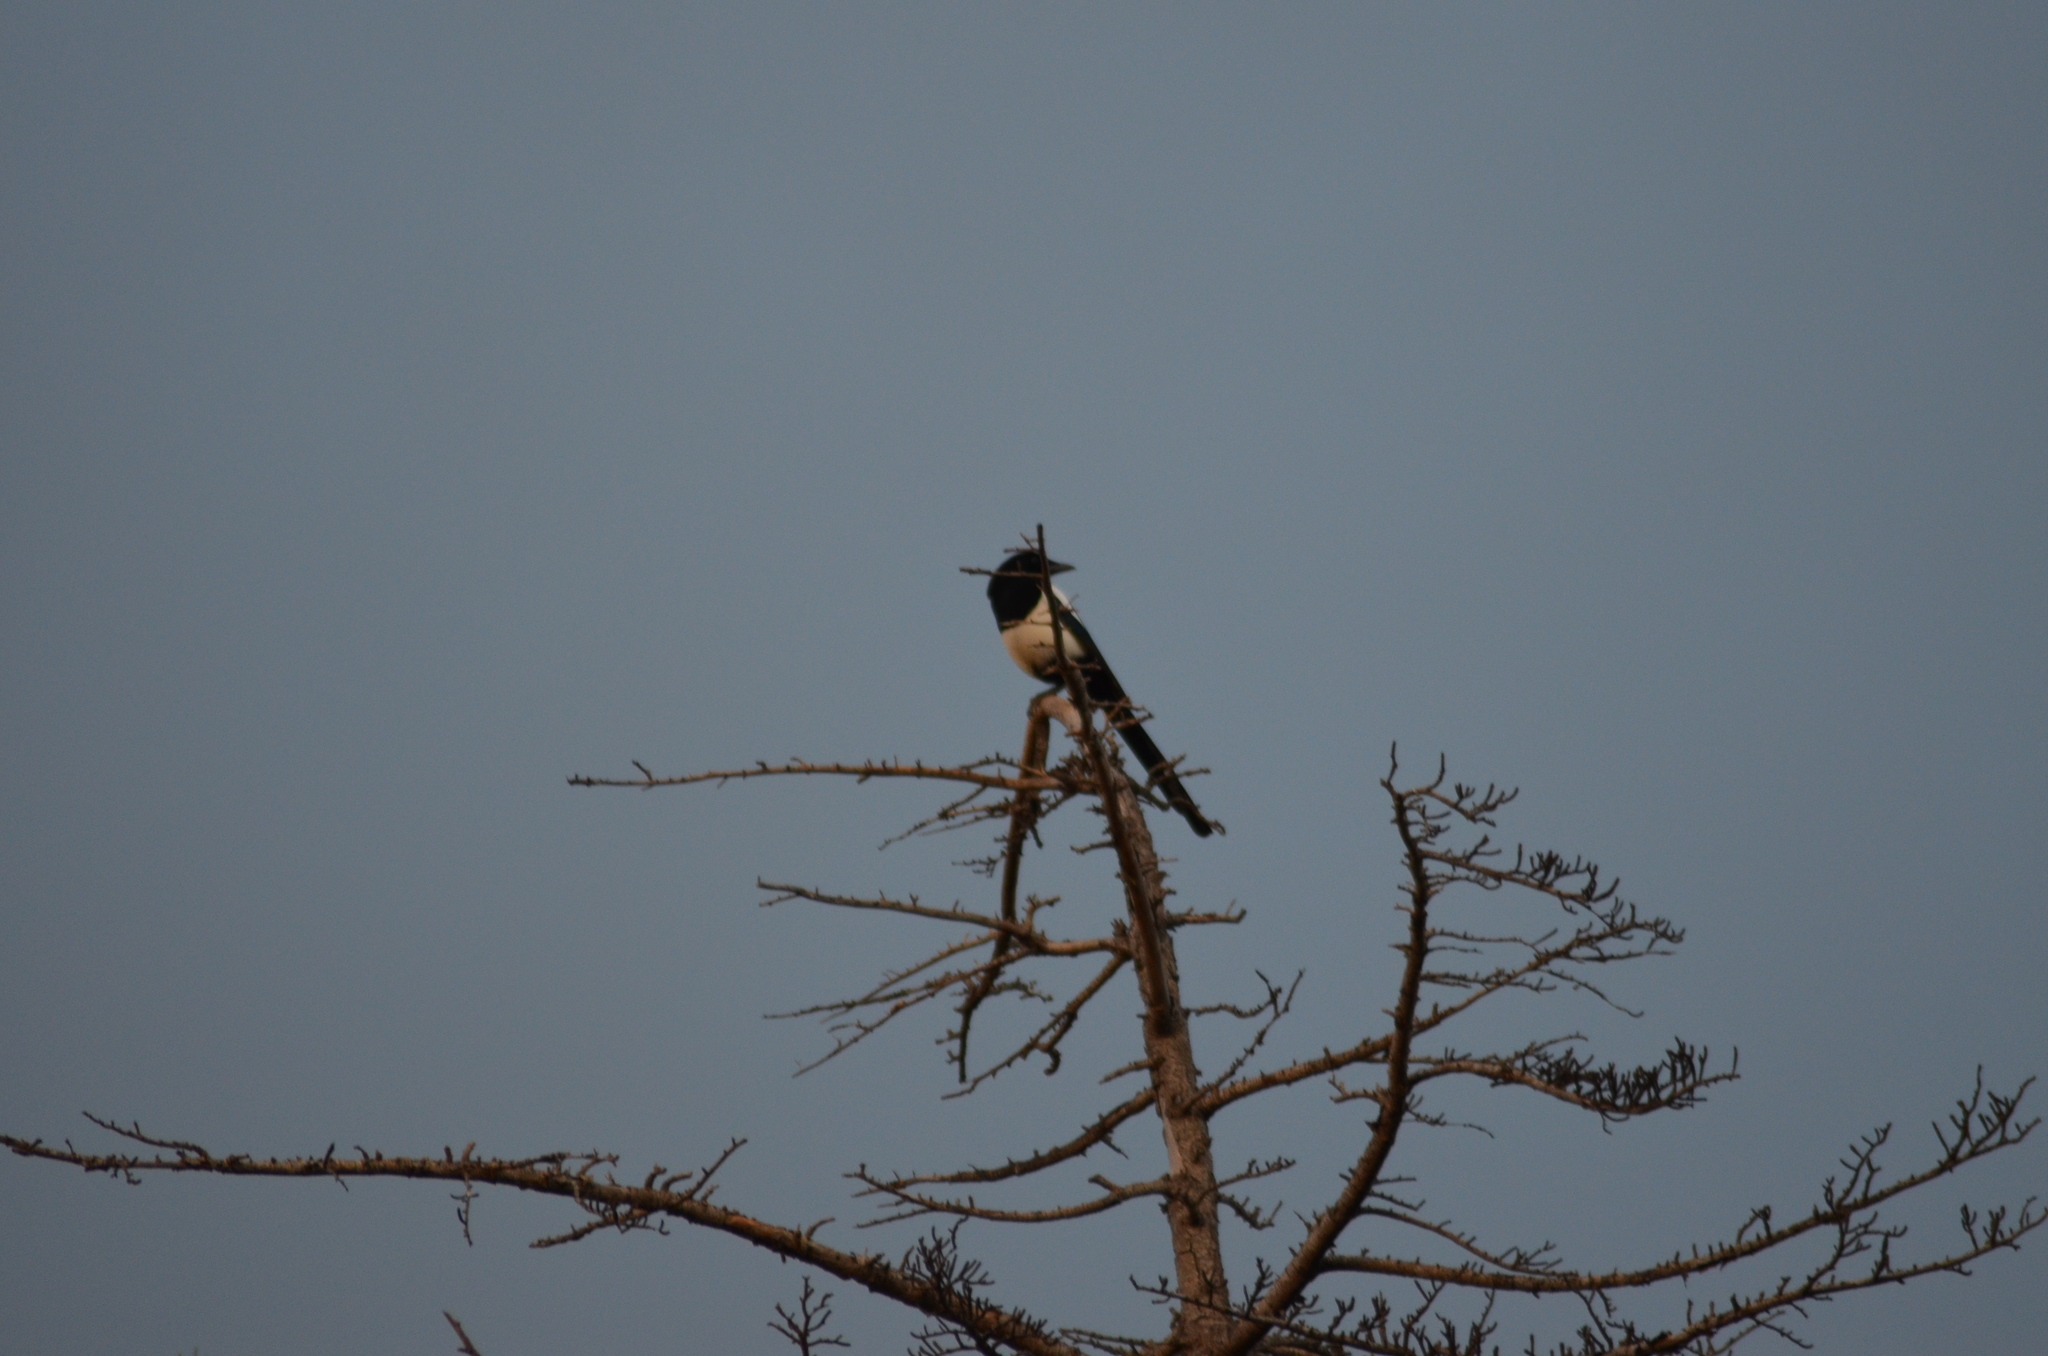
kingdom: Animalia
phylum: Chordata
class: Aves
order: Passeriformes
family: Corvidae
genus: Pica
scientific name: Pica pica
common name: Eurasian magpie
